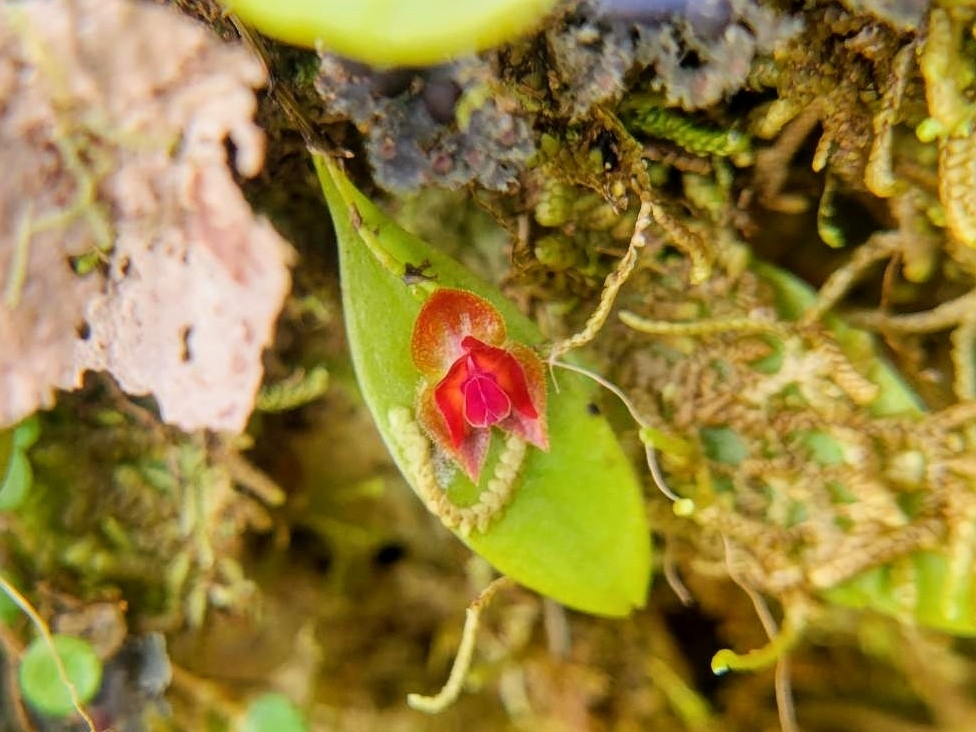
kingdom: Plantae
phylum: Tracheophyta
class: Liliopsida
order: Asparagales
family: Orchidaceae
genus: Lepanthes
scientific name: Lepanthes caritensis
